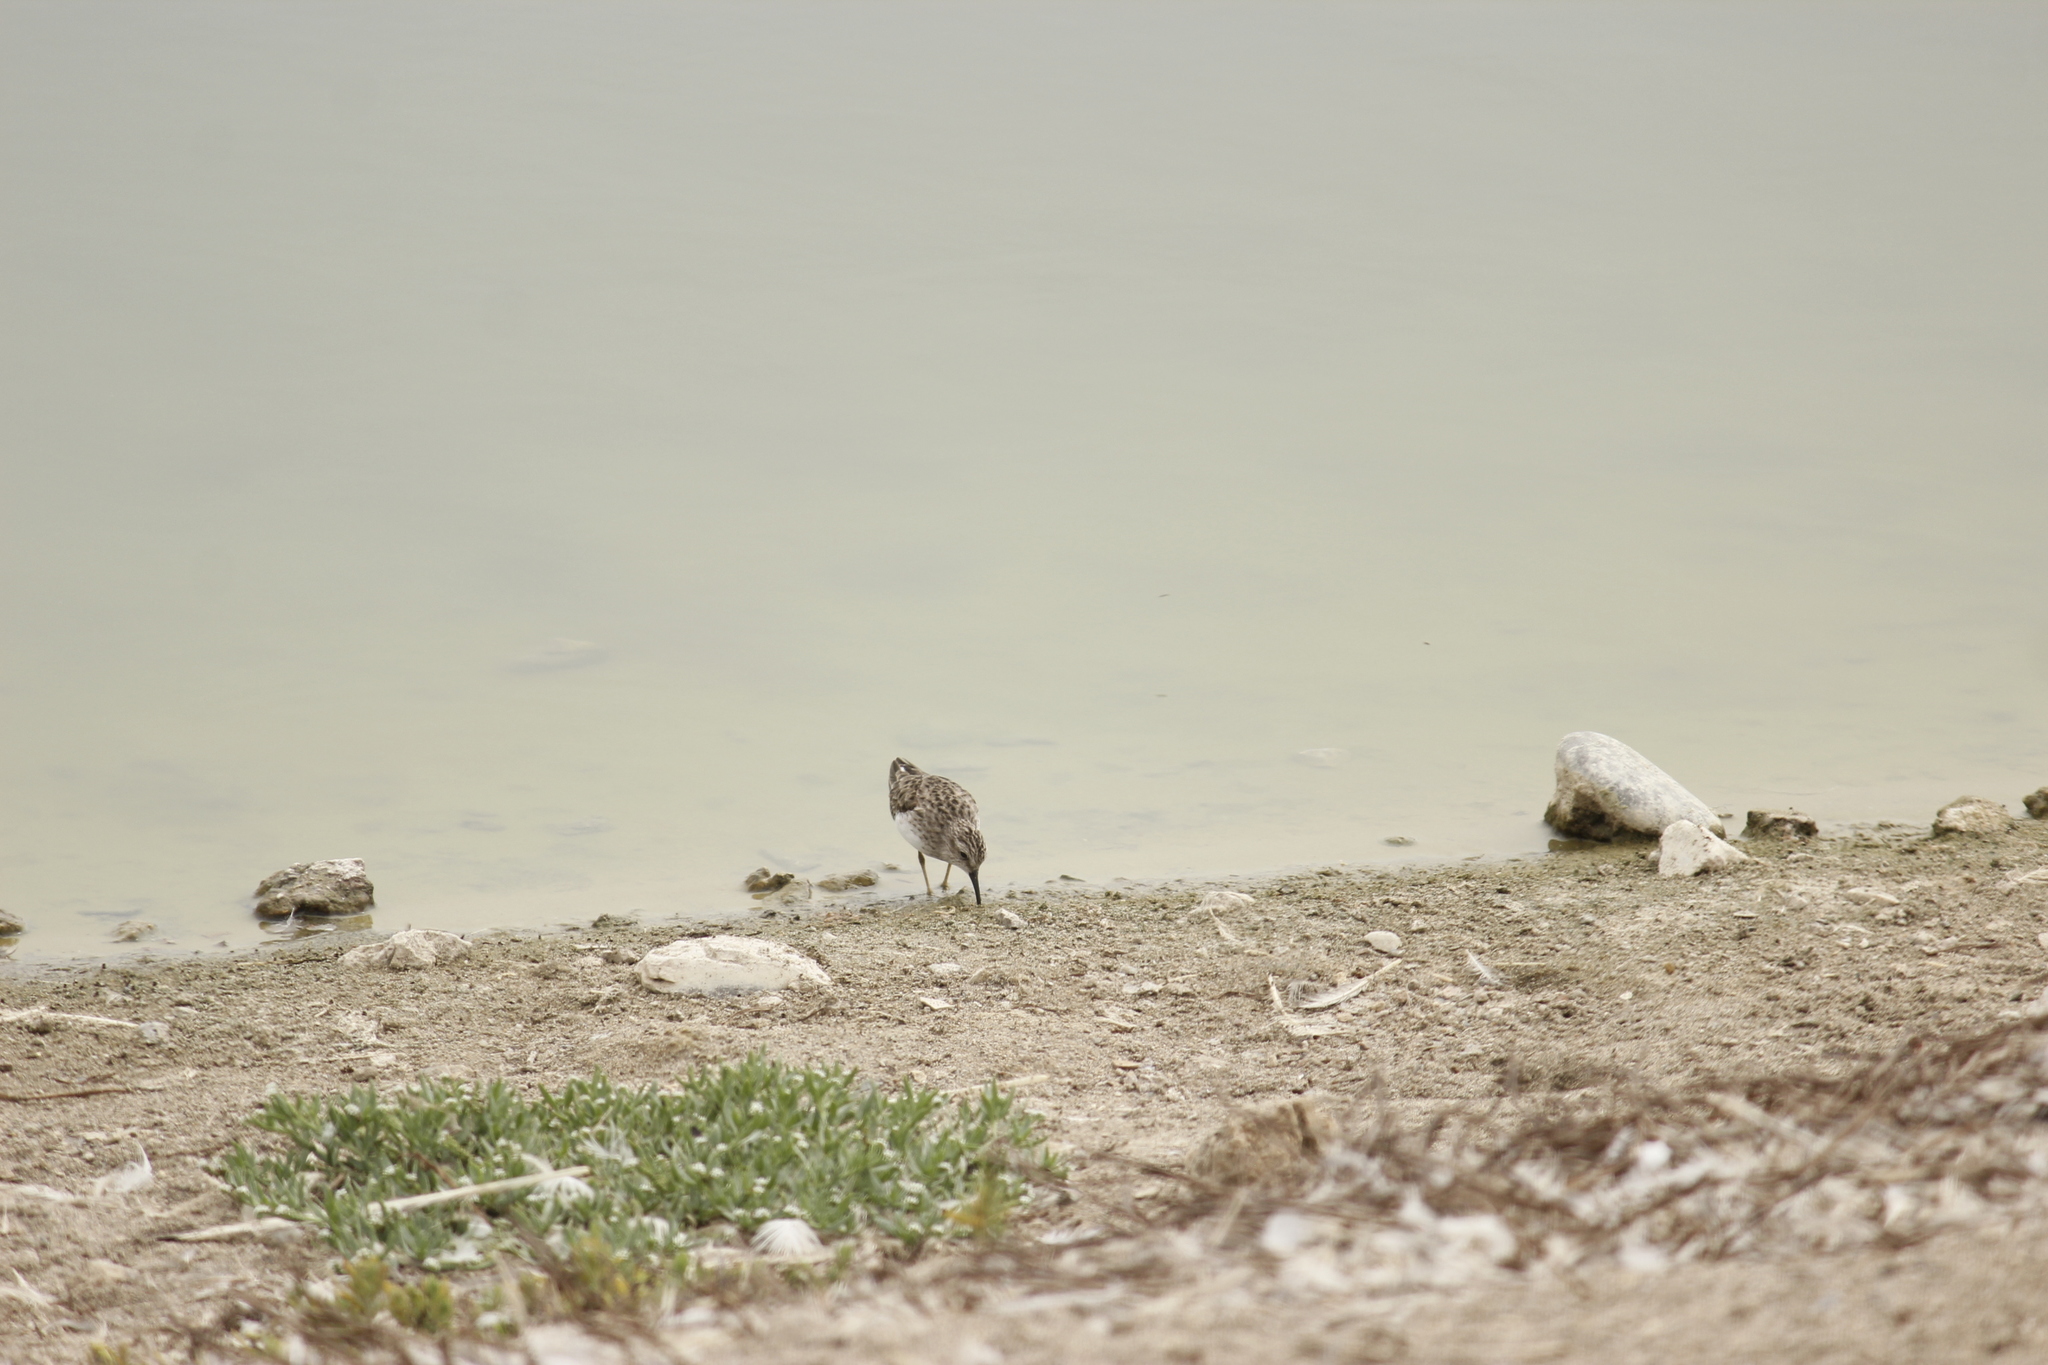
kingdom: Animalia
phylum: Chordata
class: Aves
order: Charadriiformes
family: Scolopacidae
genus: Calidris
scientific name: Calidris minutilla
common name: Least sandpiper
